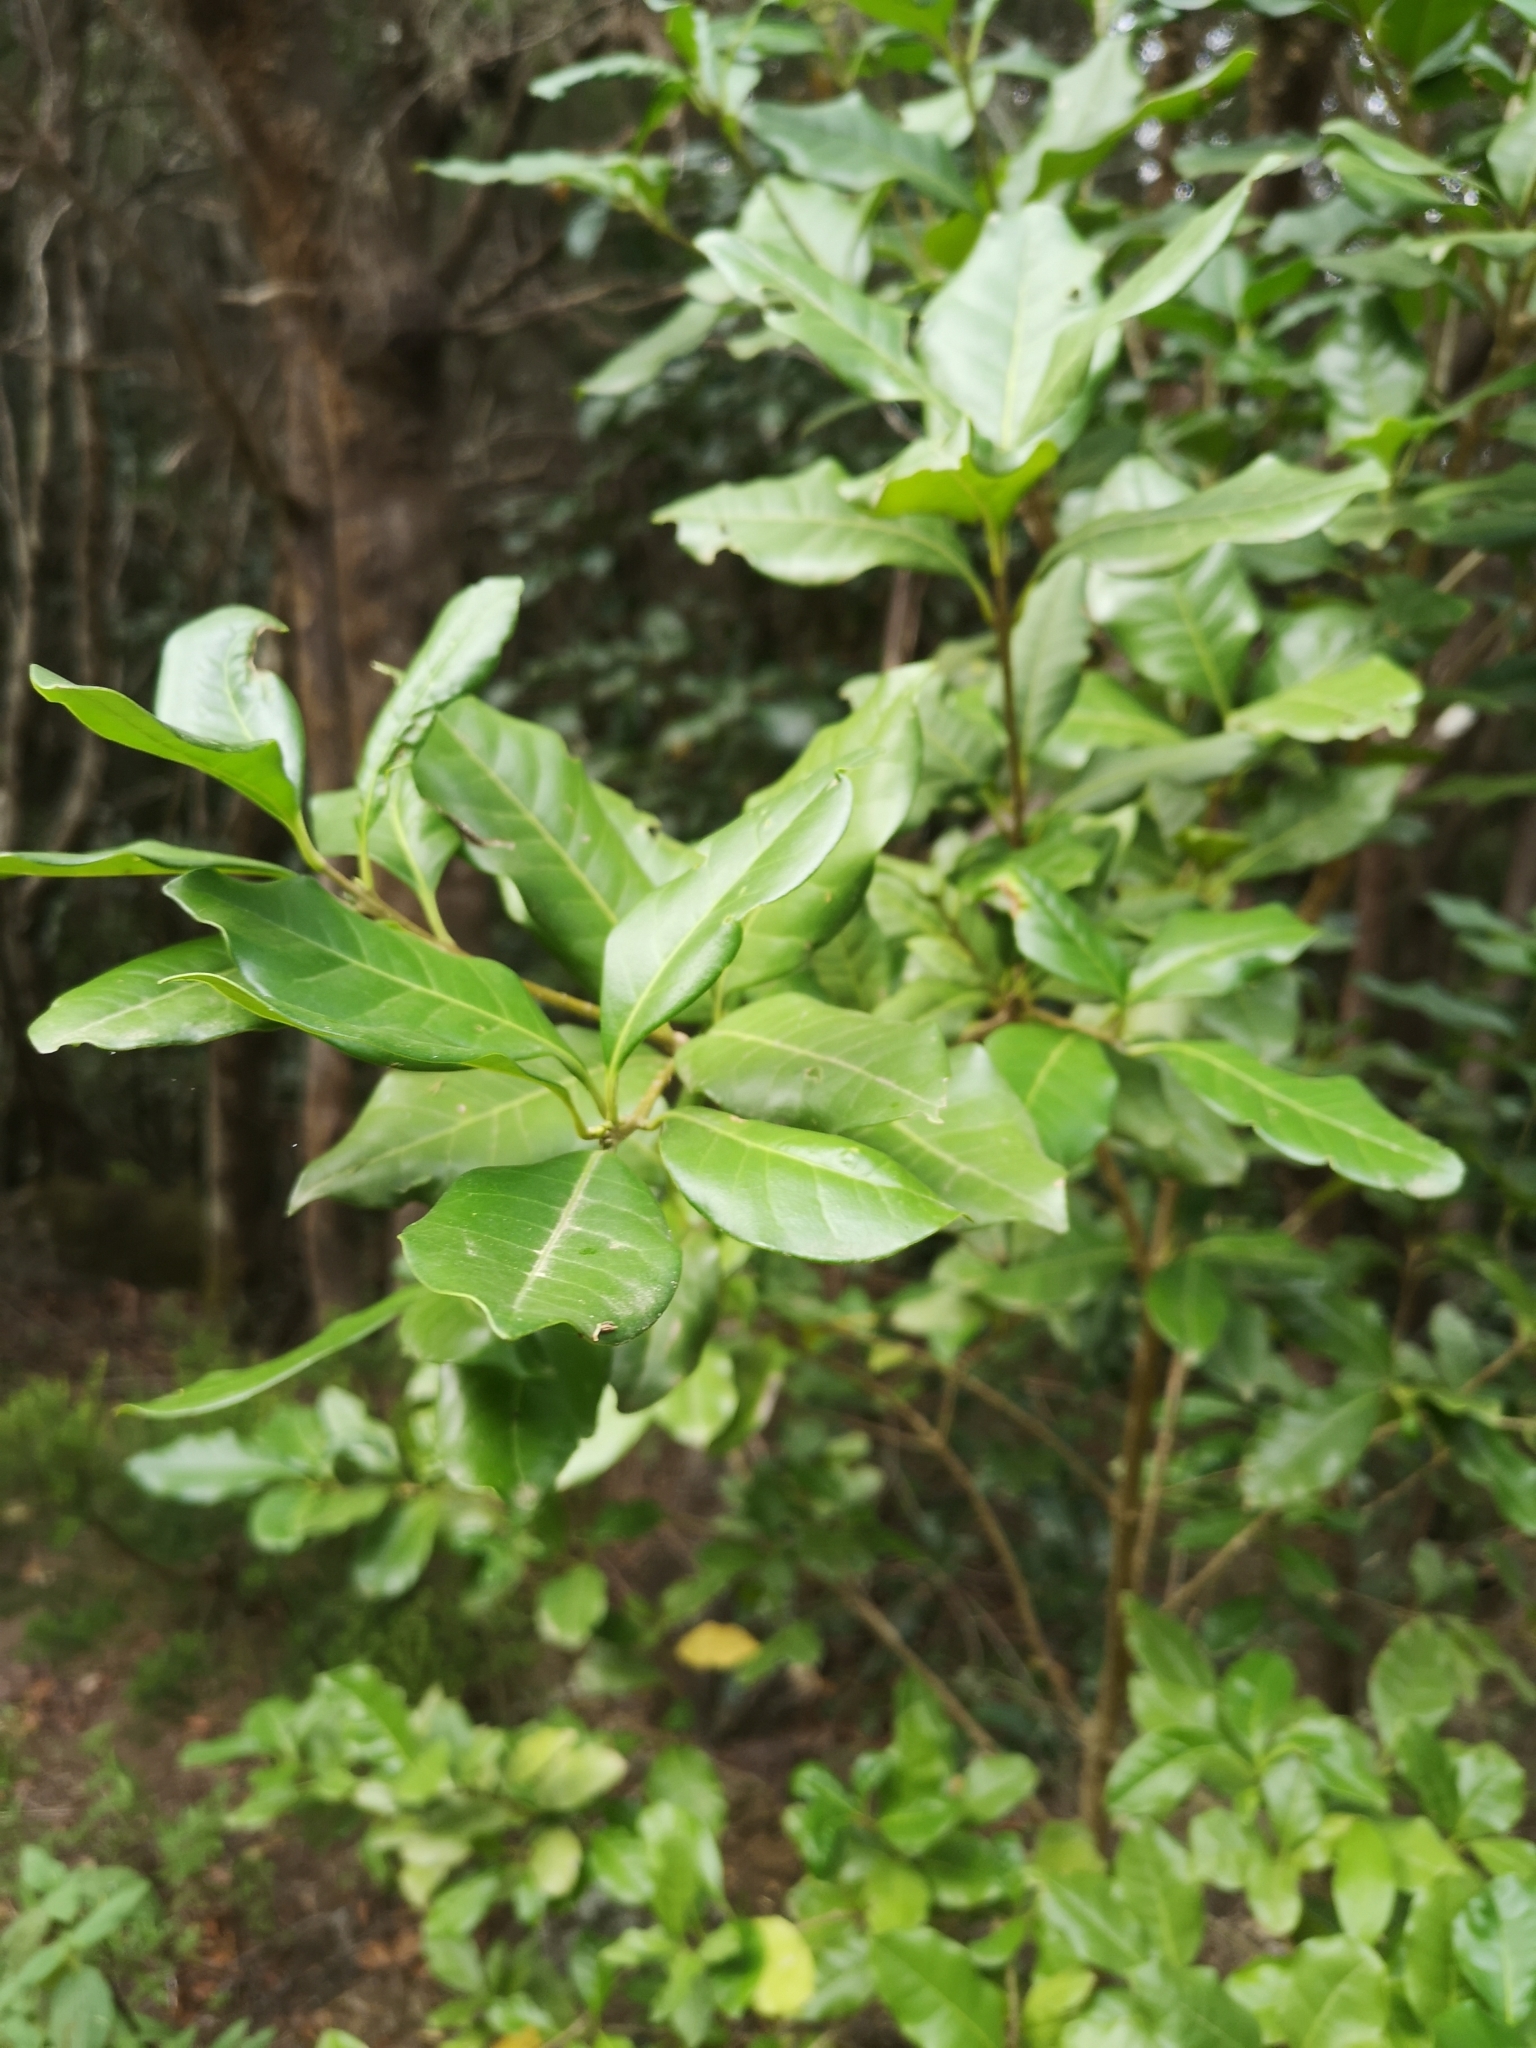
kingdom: Plantae
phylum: Tracheophyta
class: Magnoliopsida
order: Lamiales
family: Oleaceae
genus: Picconia
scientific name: Picconia excelsa
